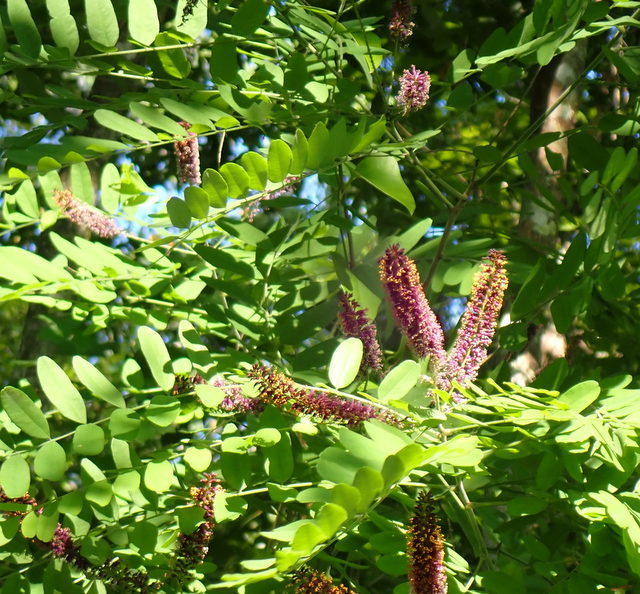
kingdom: Plantae
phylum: Tracheophyta
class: Magnoliopsida
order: Fabales
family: Fabaceae
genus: Amorpha
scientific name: Amorpha fruticosa
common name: False indigo
